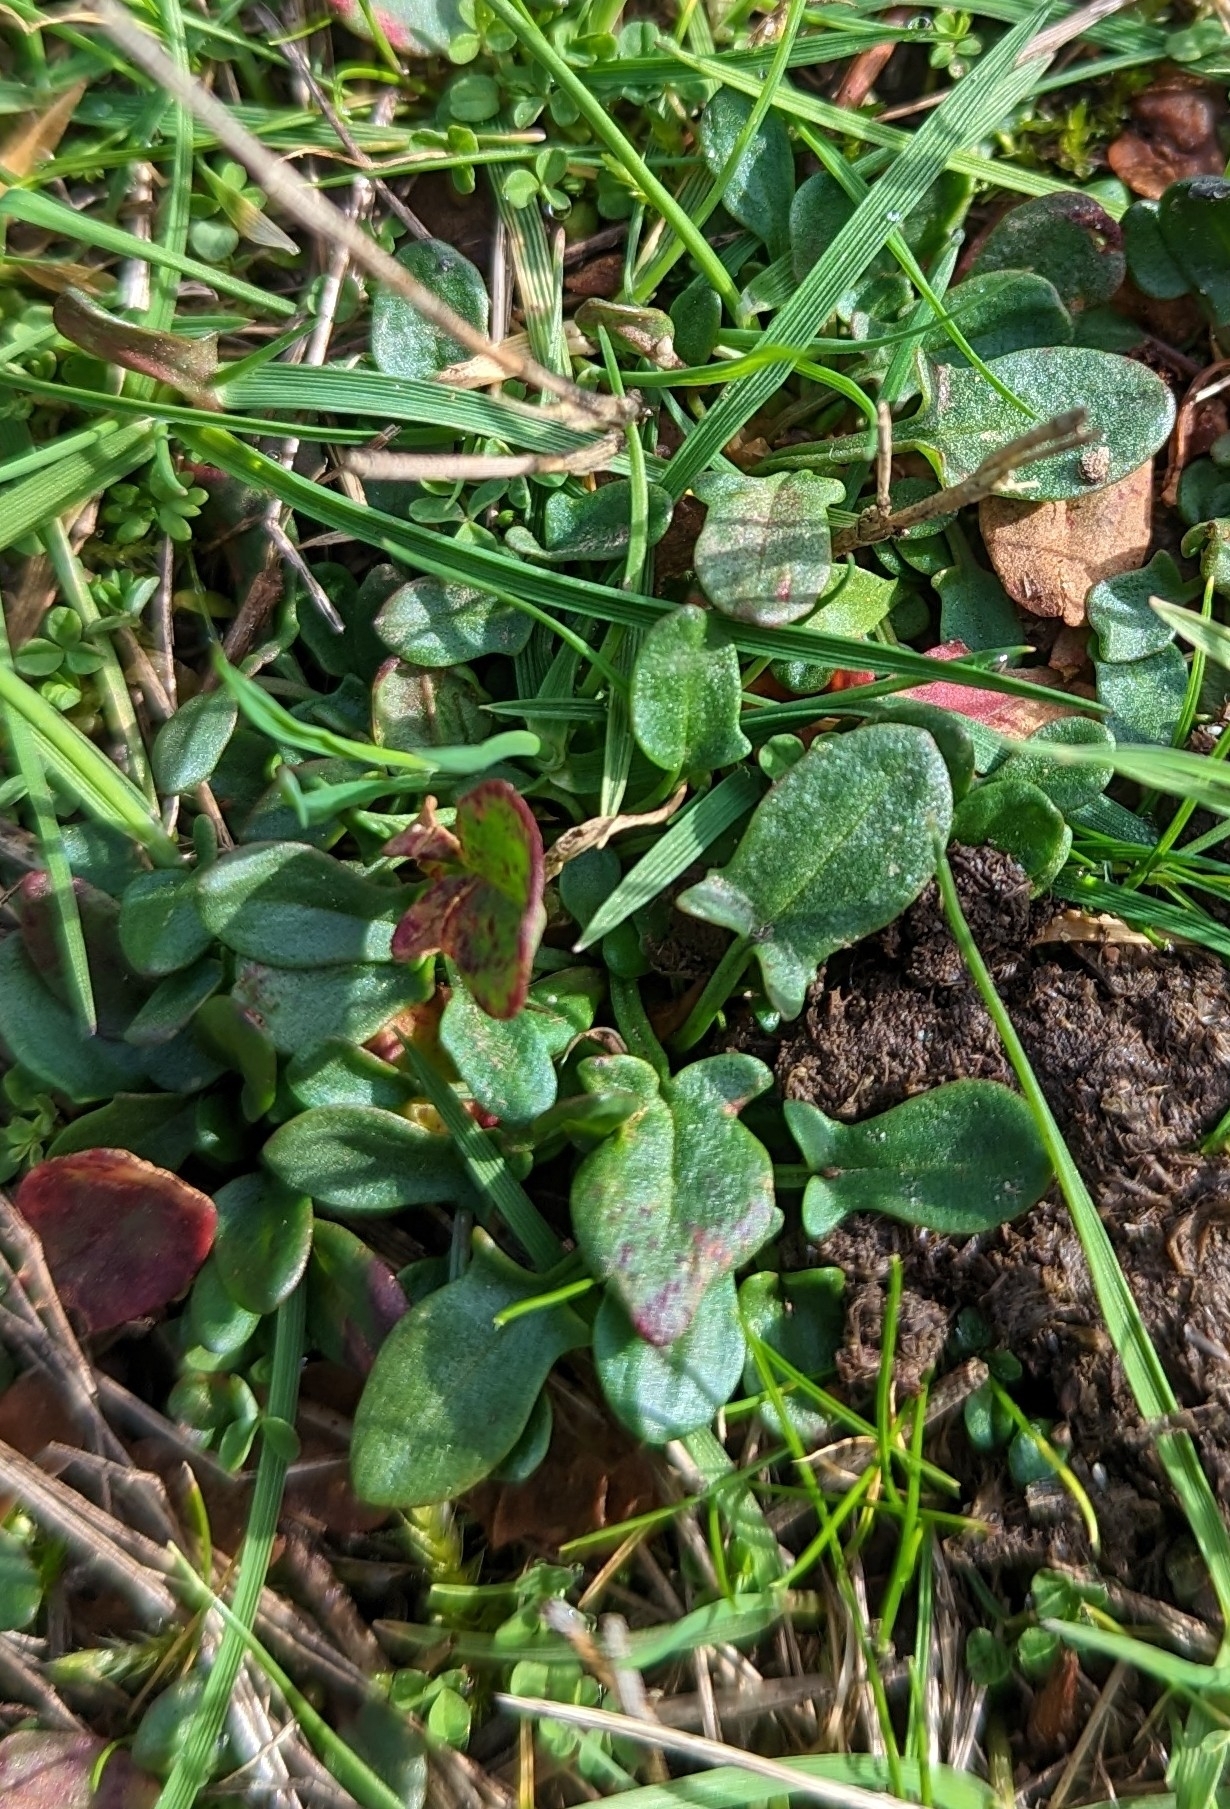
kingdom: Plantae
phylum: Tracheophyta
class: Magnoliopsida
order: Caryophyllales
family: Polygonaceae
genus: Rumex
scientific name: Rumex acetosella
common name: Common sheep sorrel
